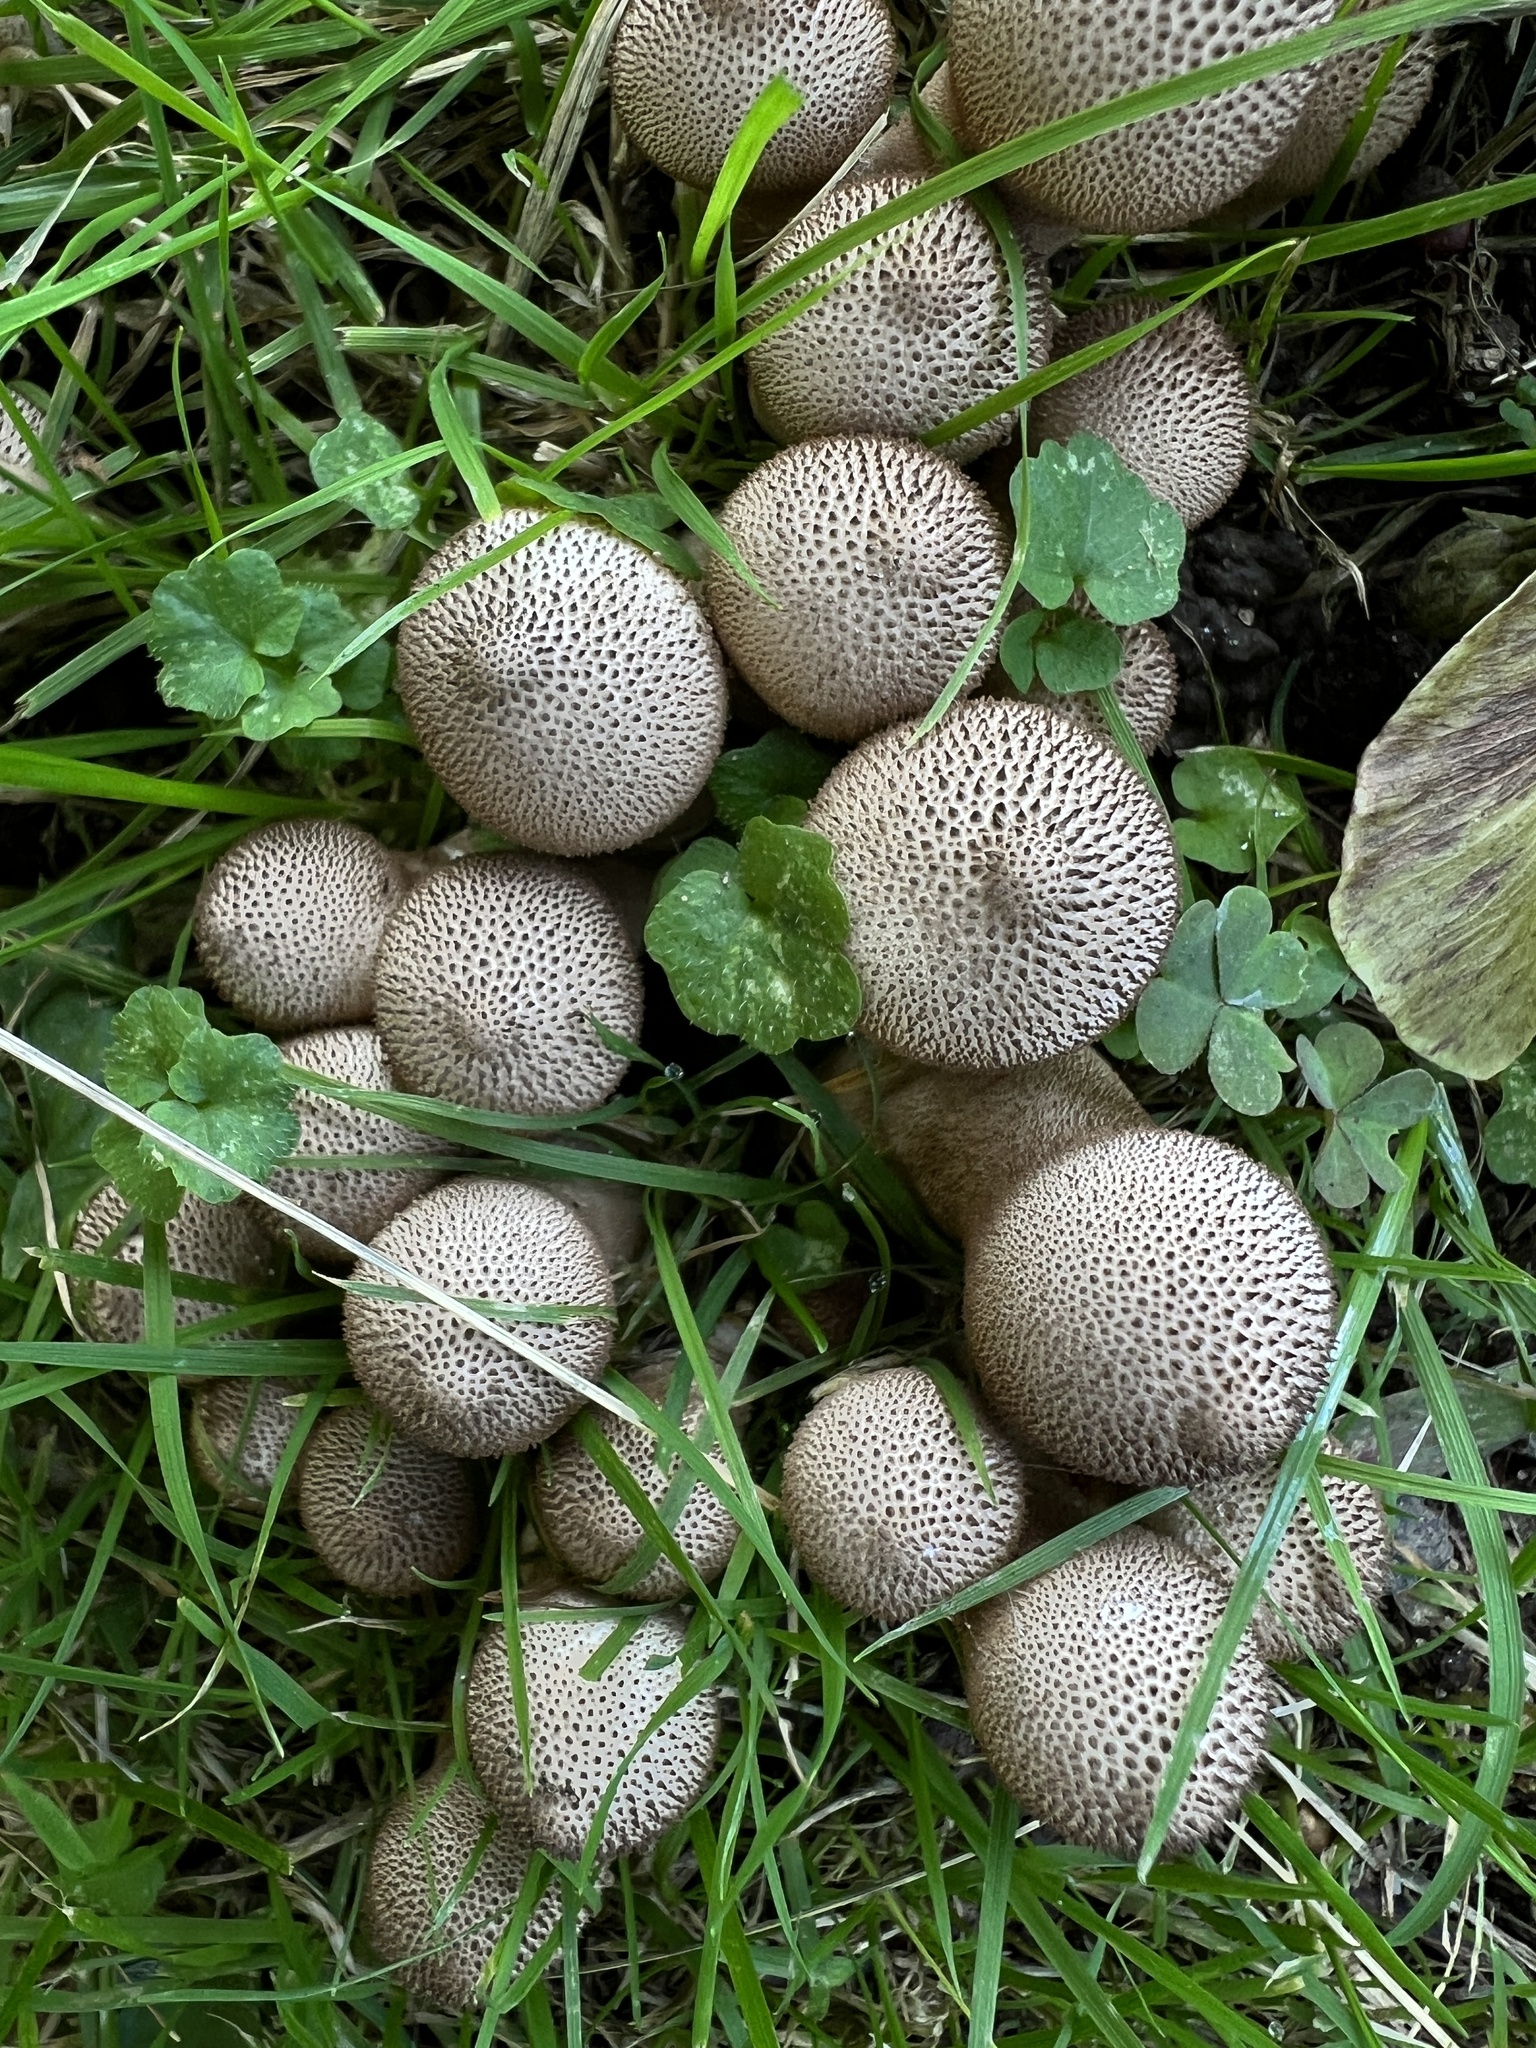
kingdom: Fungi
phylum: Basidiomycota
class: Agaricomycetes
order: Agaricales
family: Lycoperdaceae
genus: Lycoperdon
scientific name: Lycoperdon perlatum
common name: Common puffball
